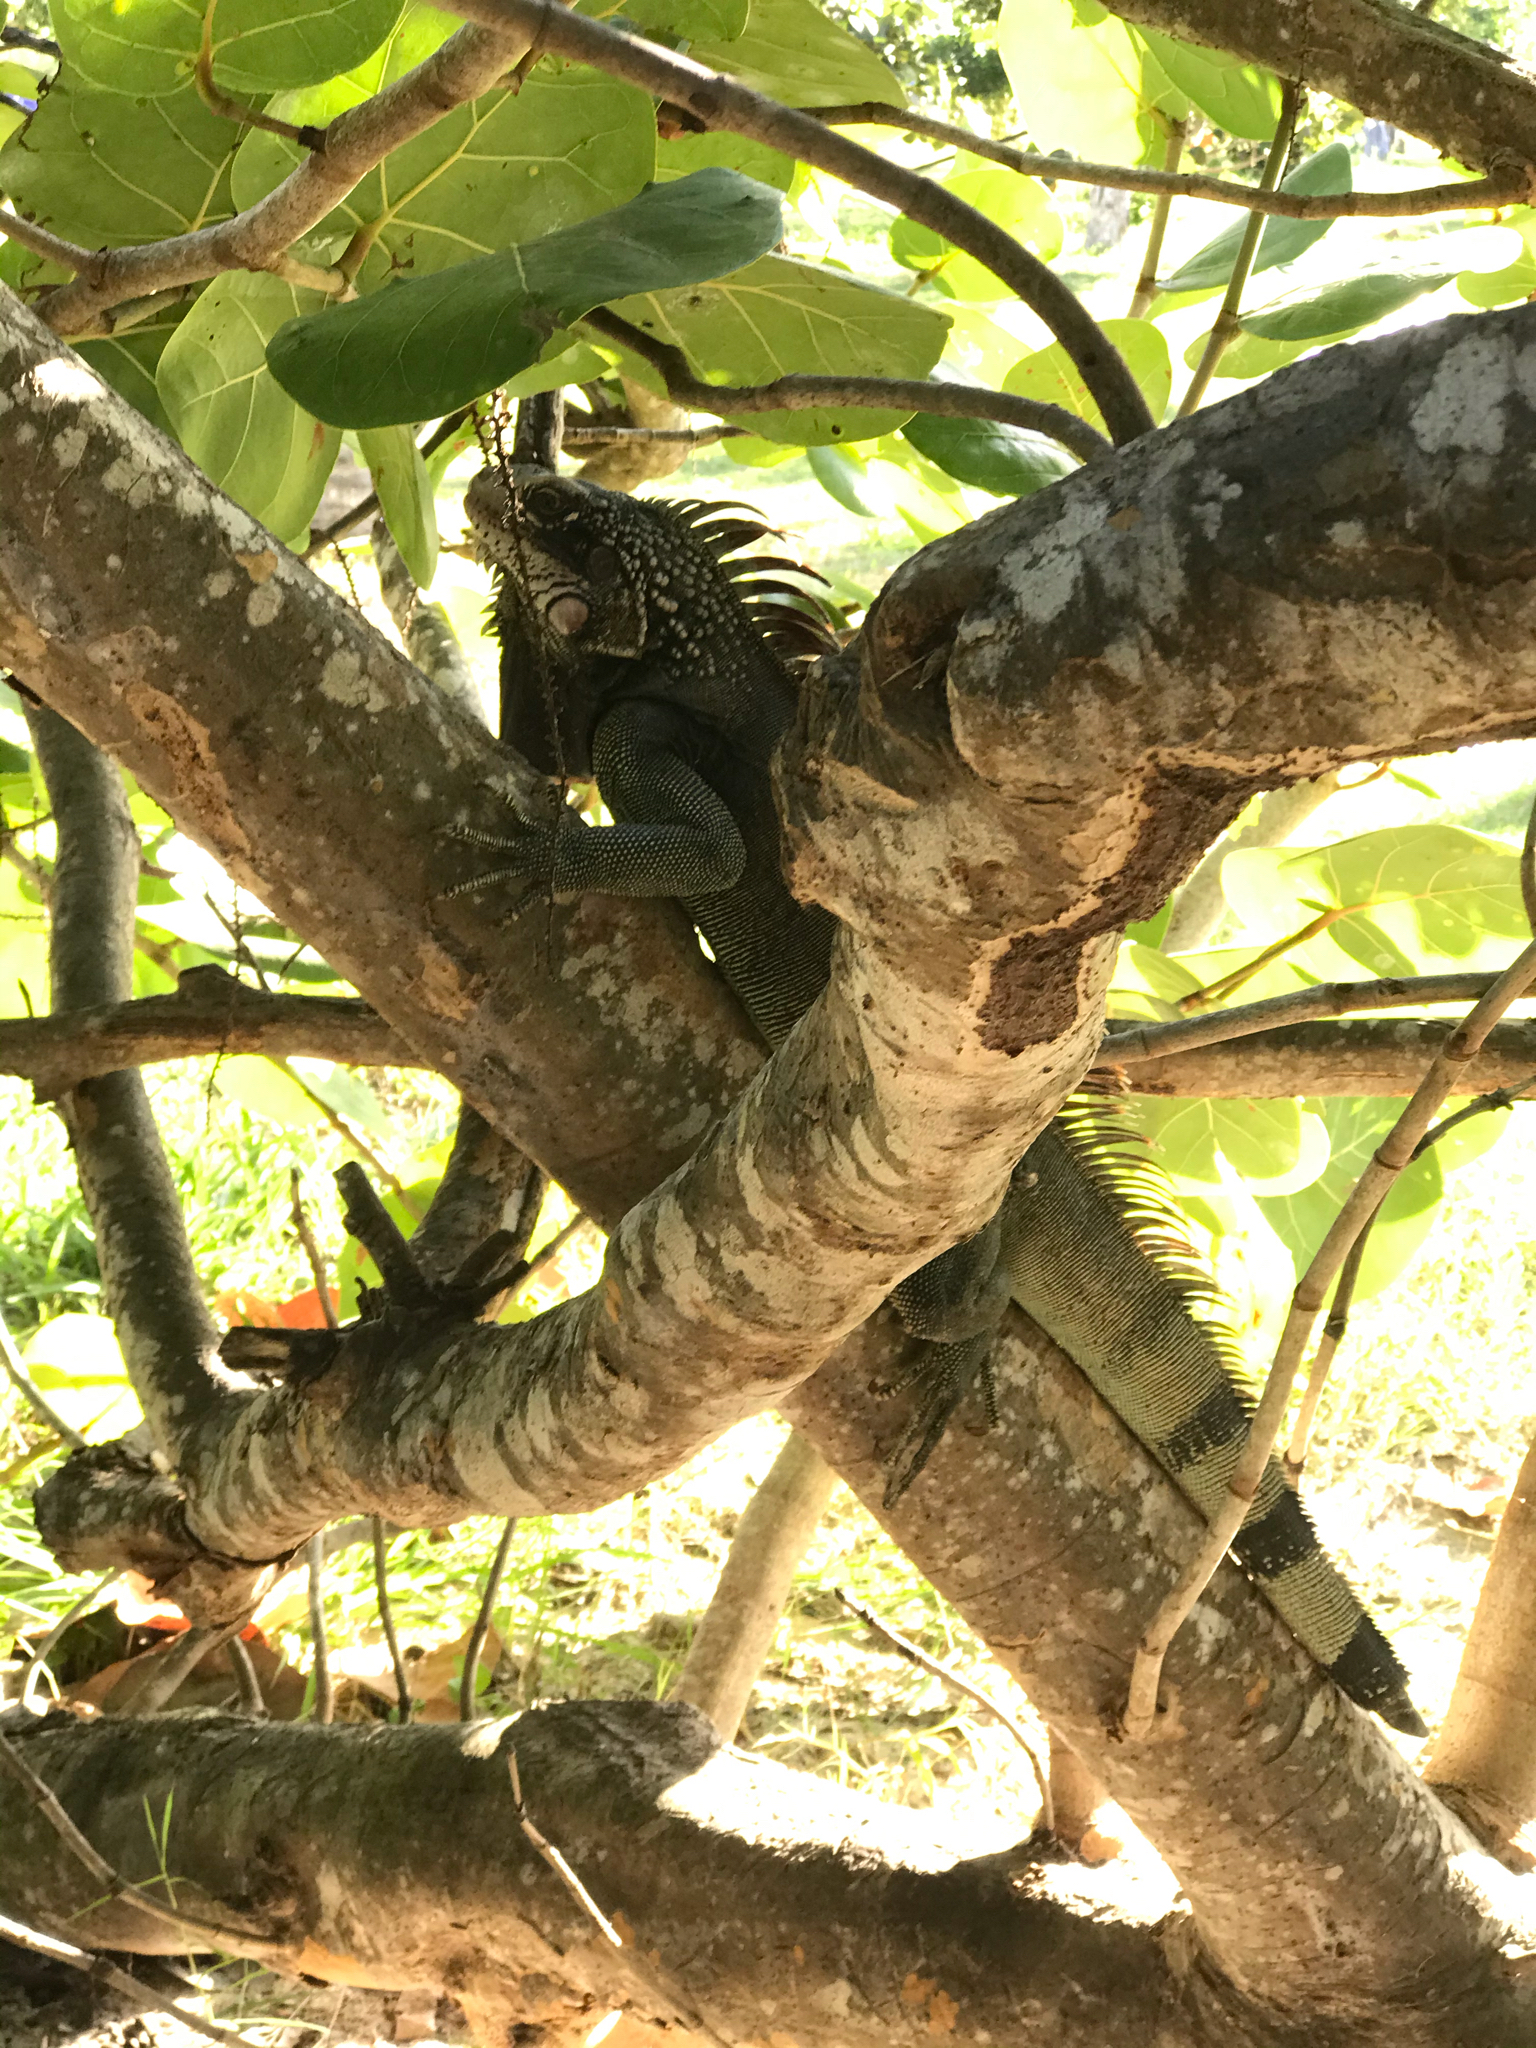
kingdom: Animalia
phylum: Chordata
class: Squamata
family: Iguanidae
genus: Iguana
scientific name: Iguana iguana
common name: Green iguana
